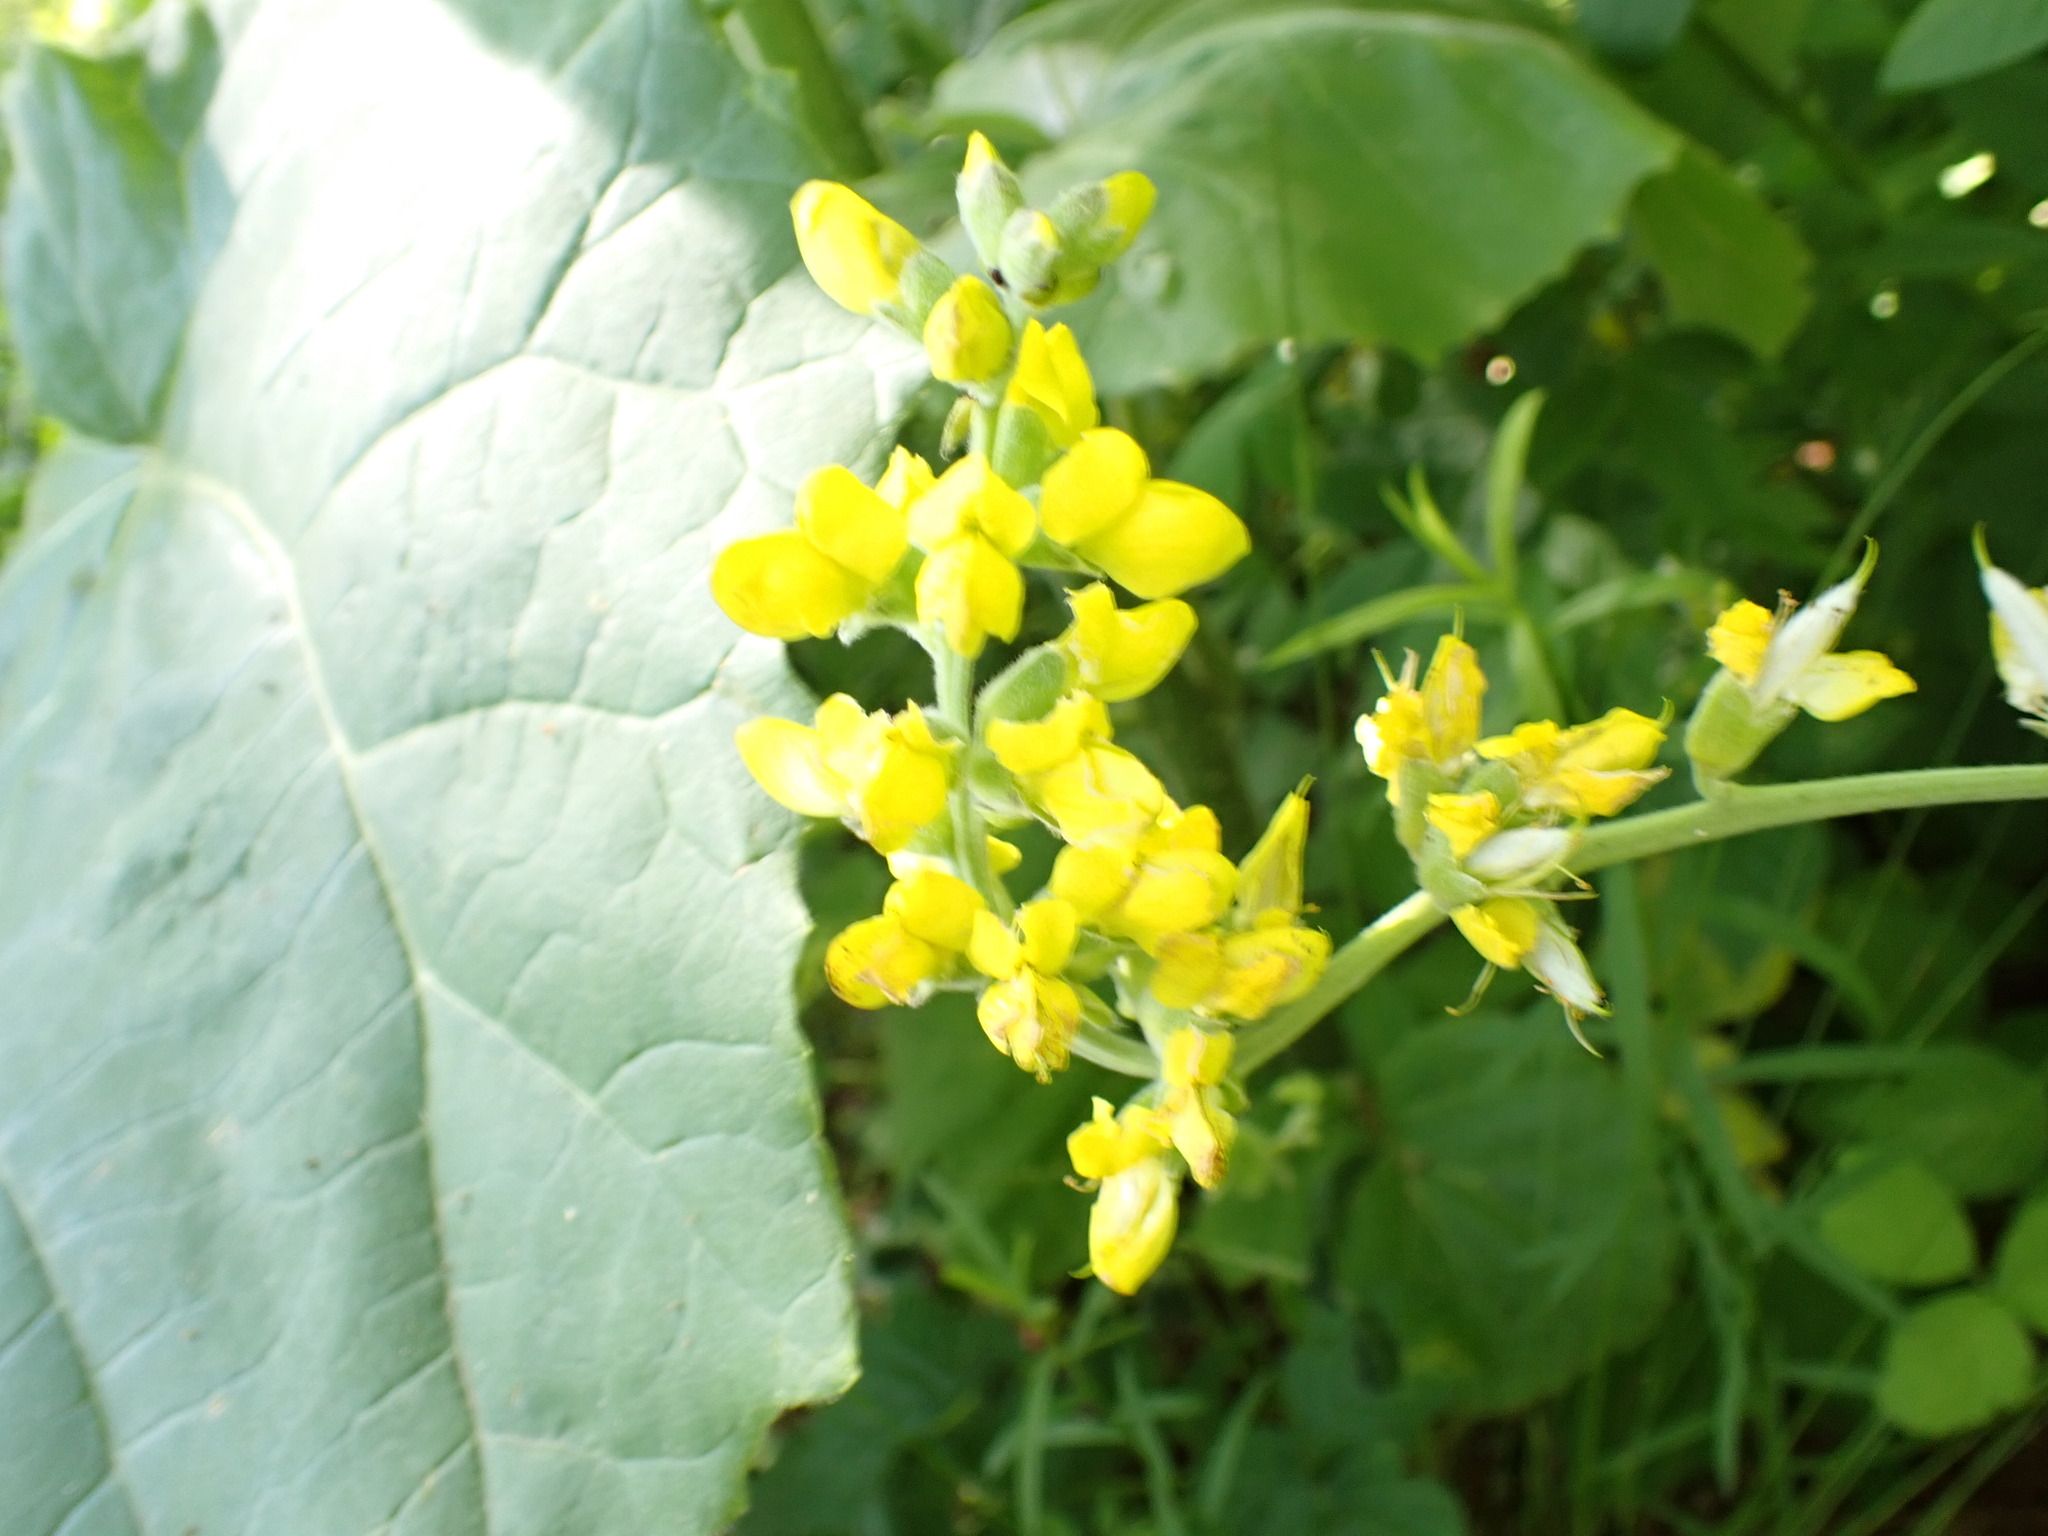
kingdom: Plantae
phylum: Tracheophyta
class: Magnoliopsida
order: Fabales
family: Fabaceae
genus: Thermopsis
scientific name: Thermopsis villosa
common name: Carolina-lupin
